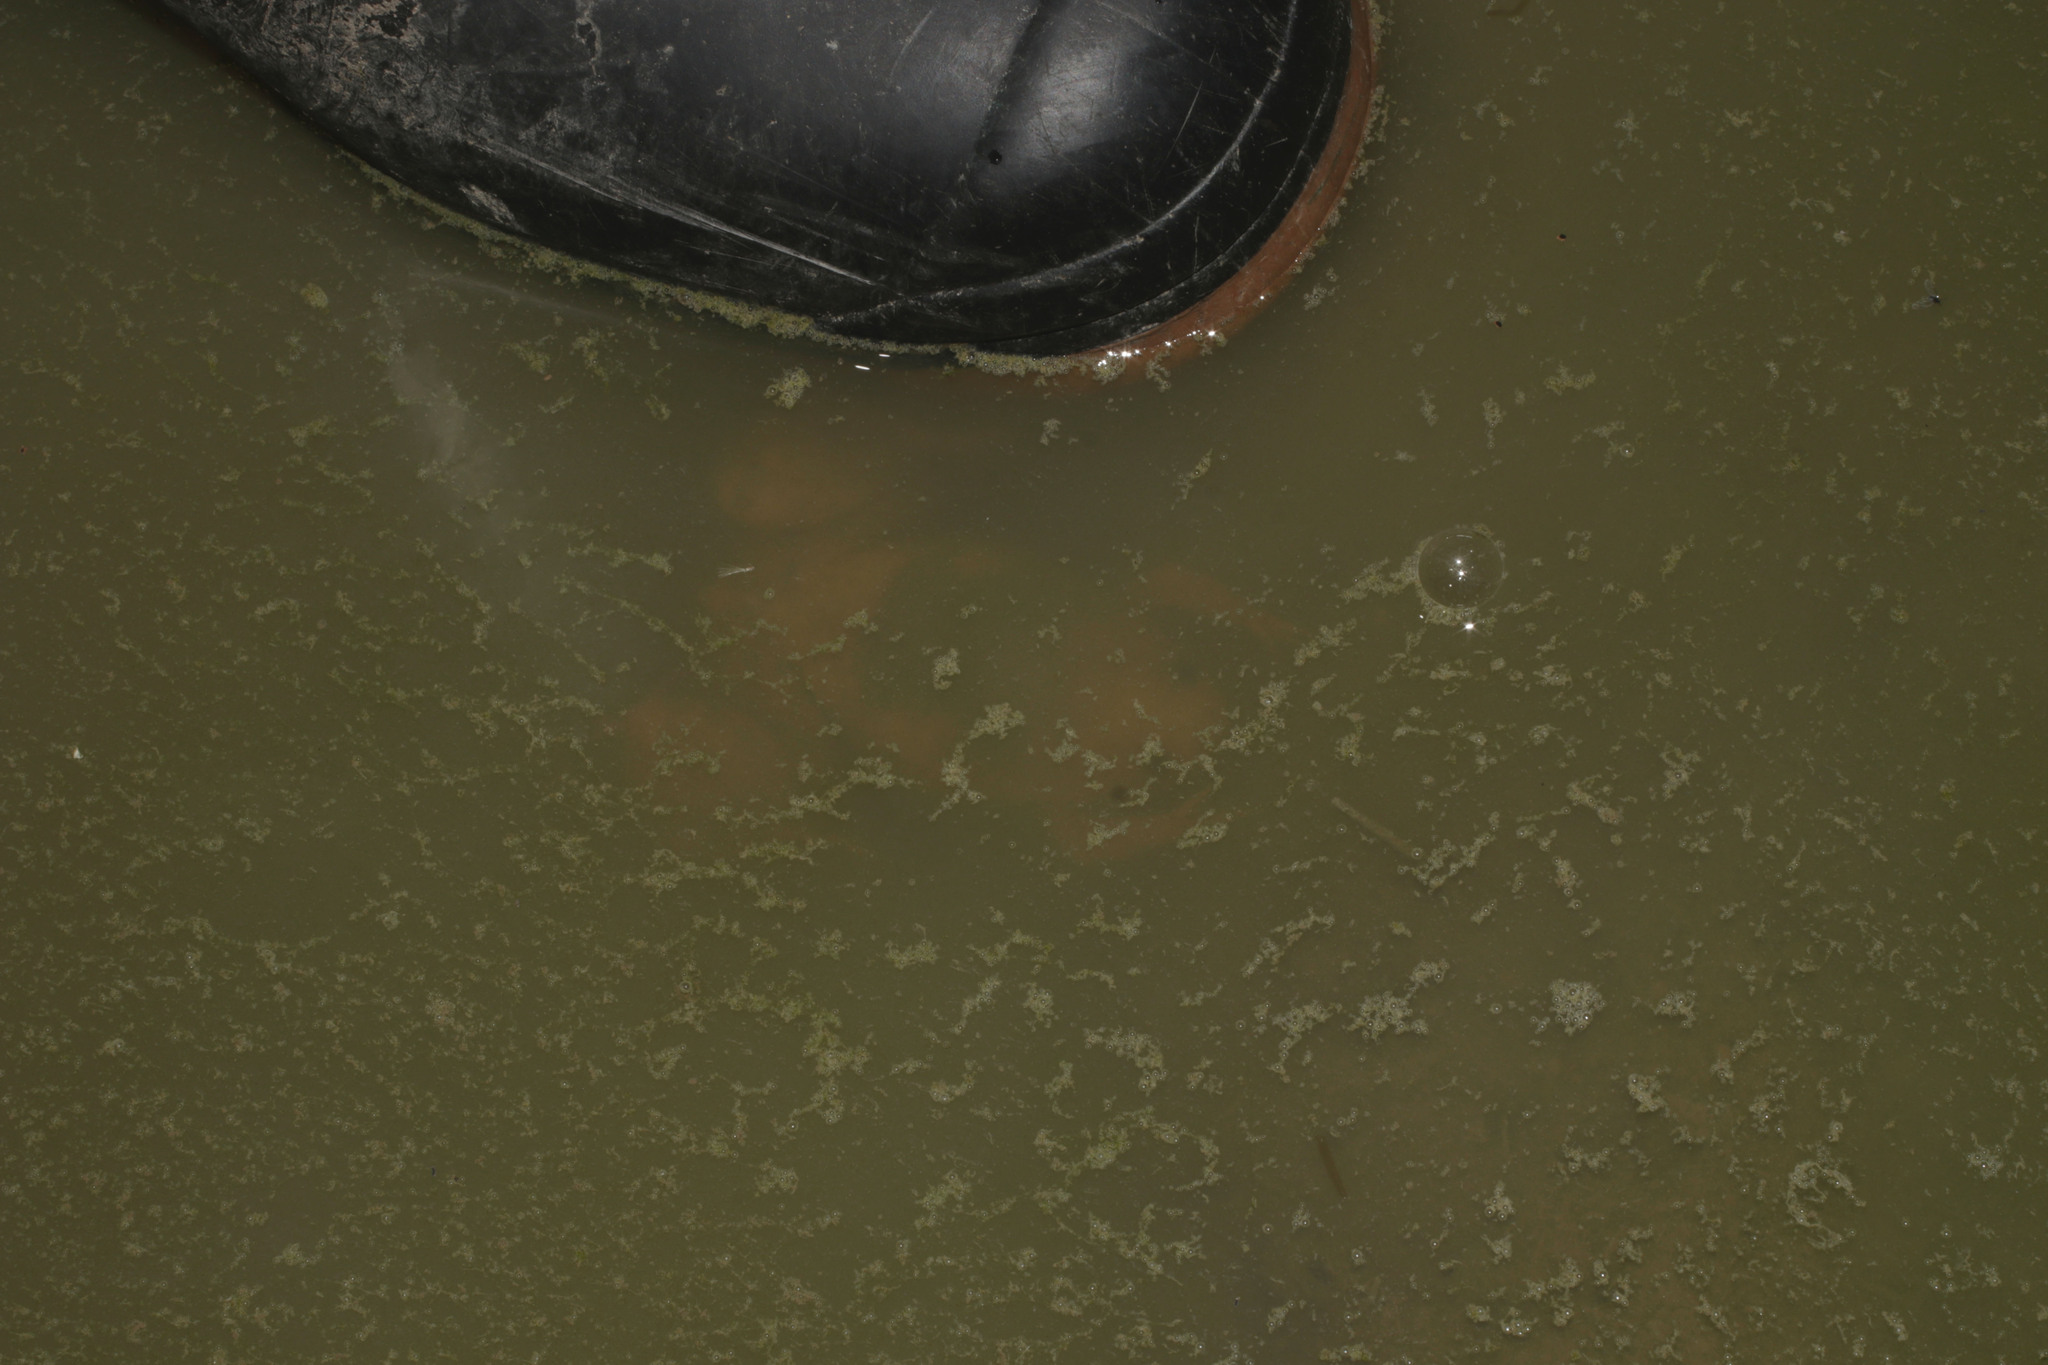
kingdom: Animalia
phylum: Chordata
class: Amphibia
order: Anura
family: Pipidae
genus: Xenopus
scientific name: Xenopus laevis
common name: African clawed frog
